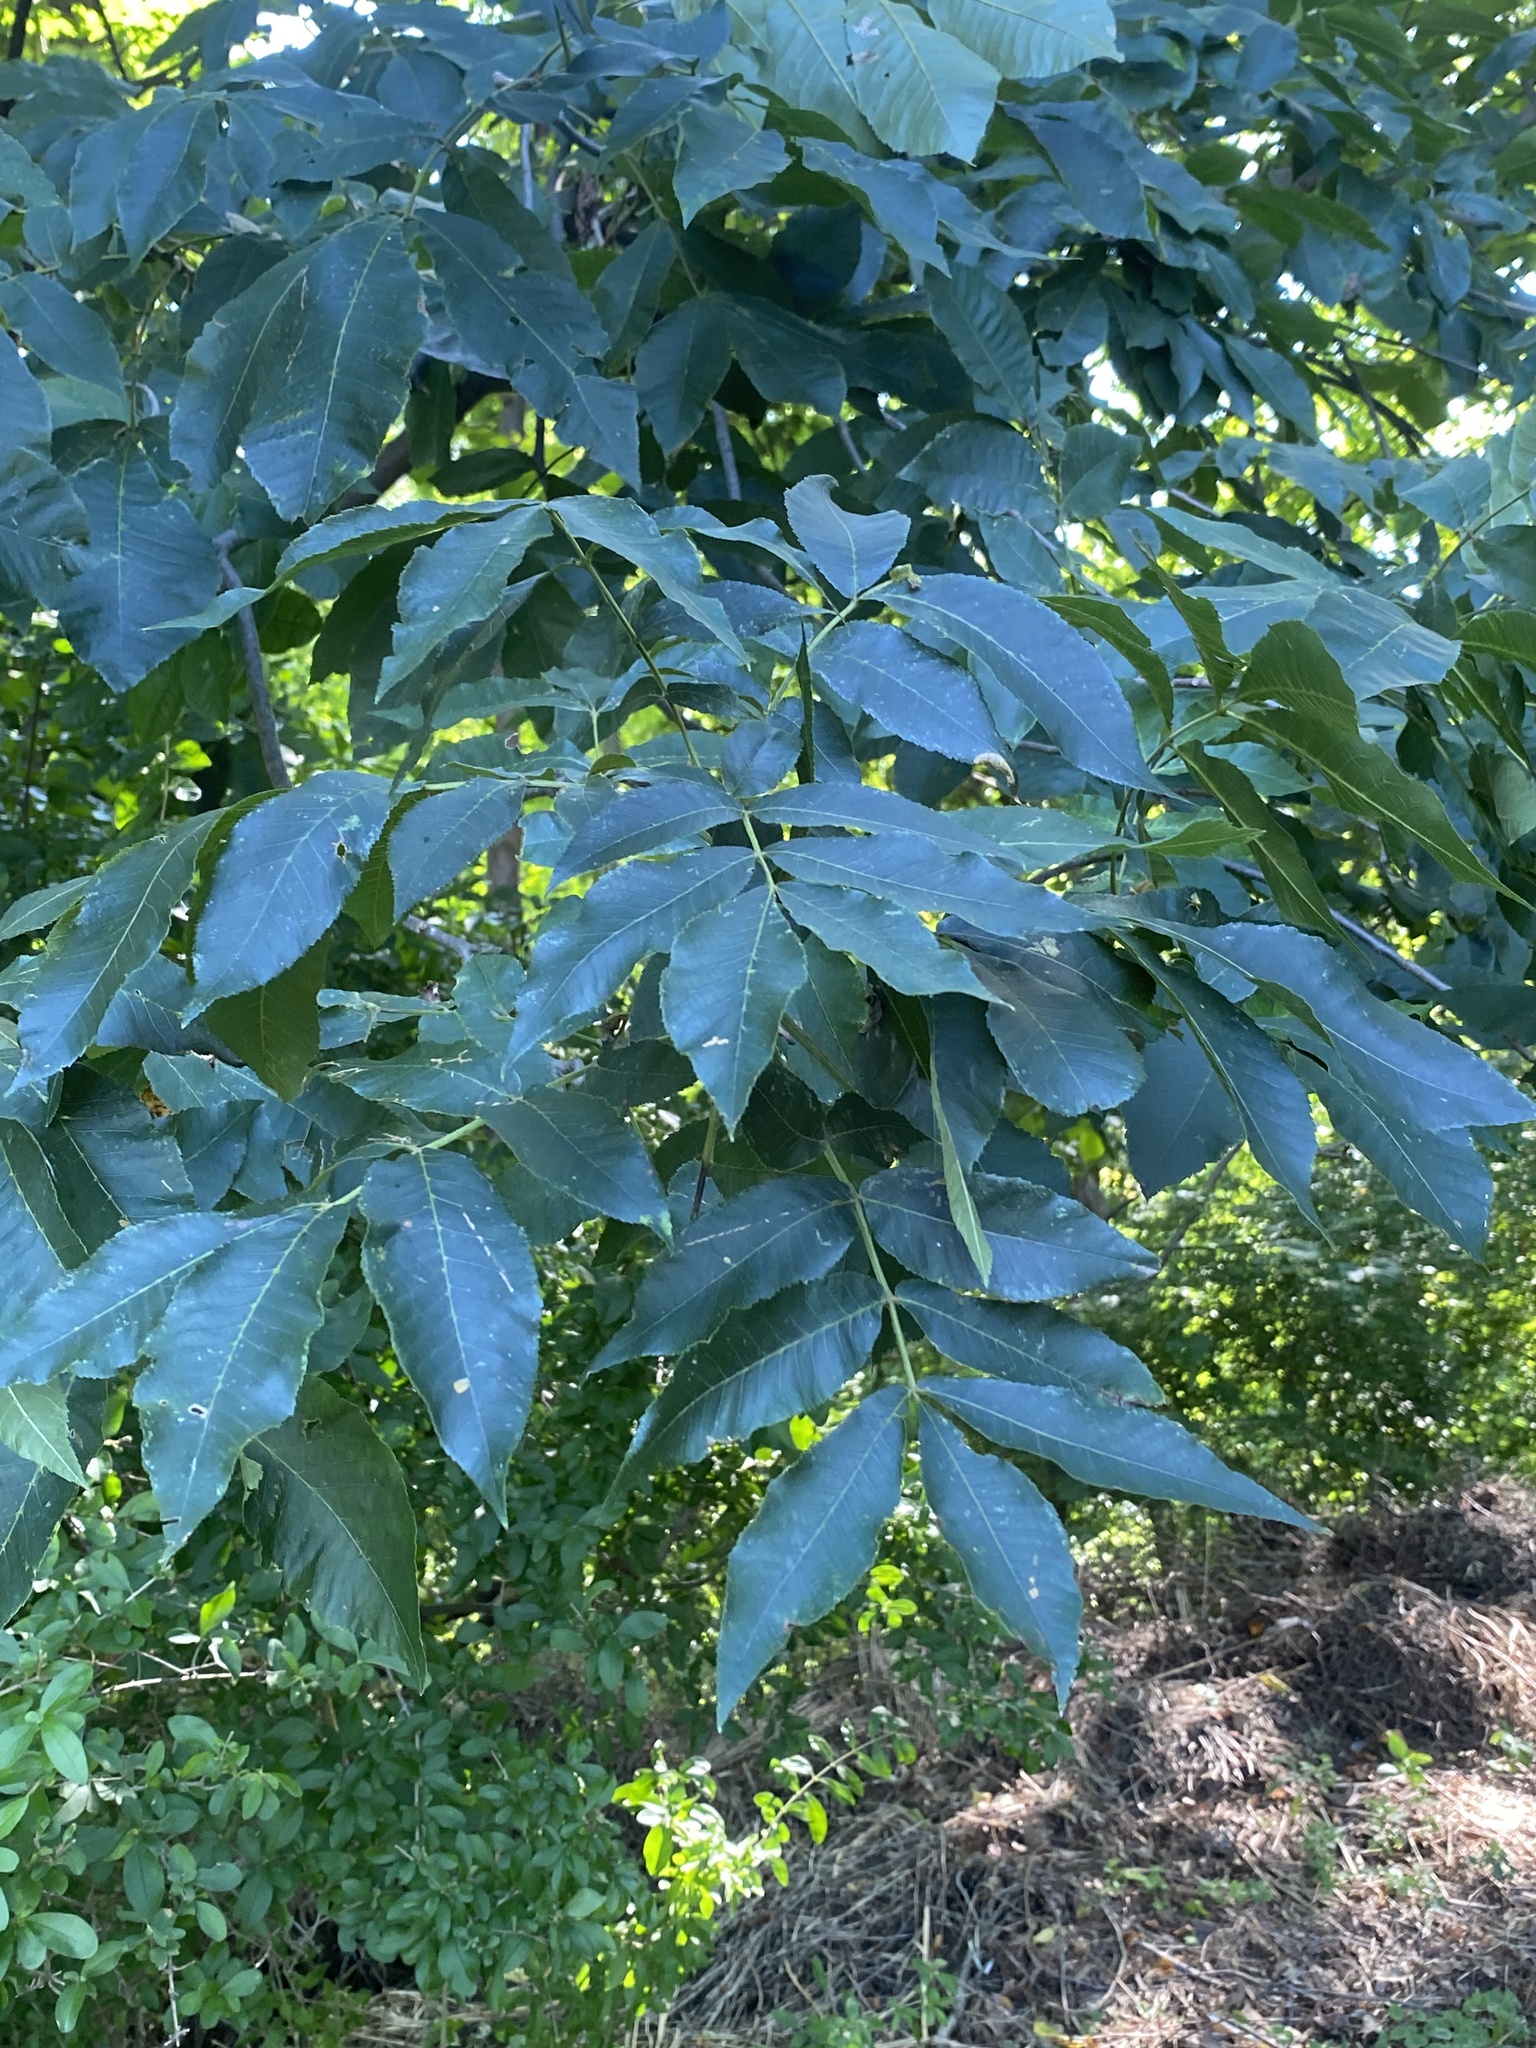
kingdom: Plantae
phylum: Tracheophyta
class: Magnoliopsida
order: Fagales
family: Juglandaceae
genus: Carya
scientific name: Carya cordiformis
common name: Bitternut hickory
